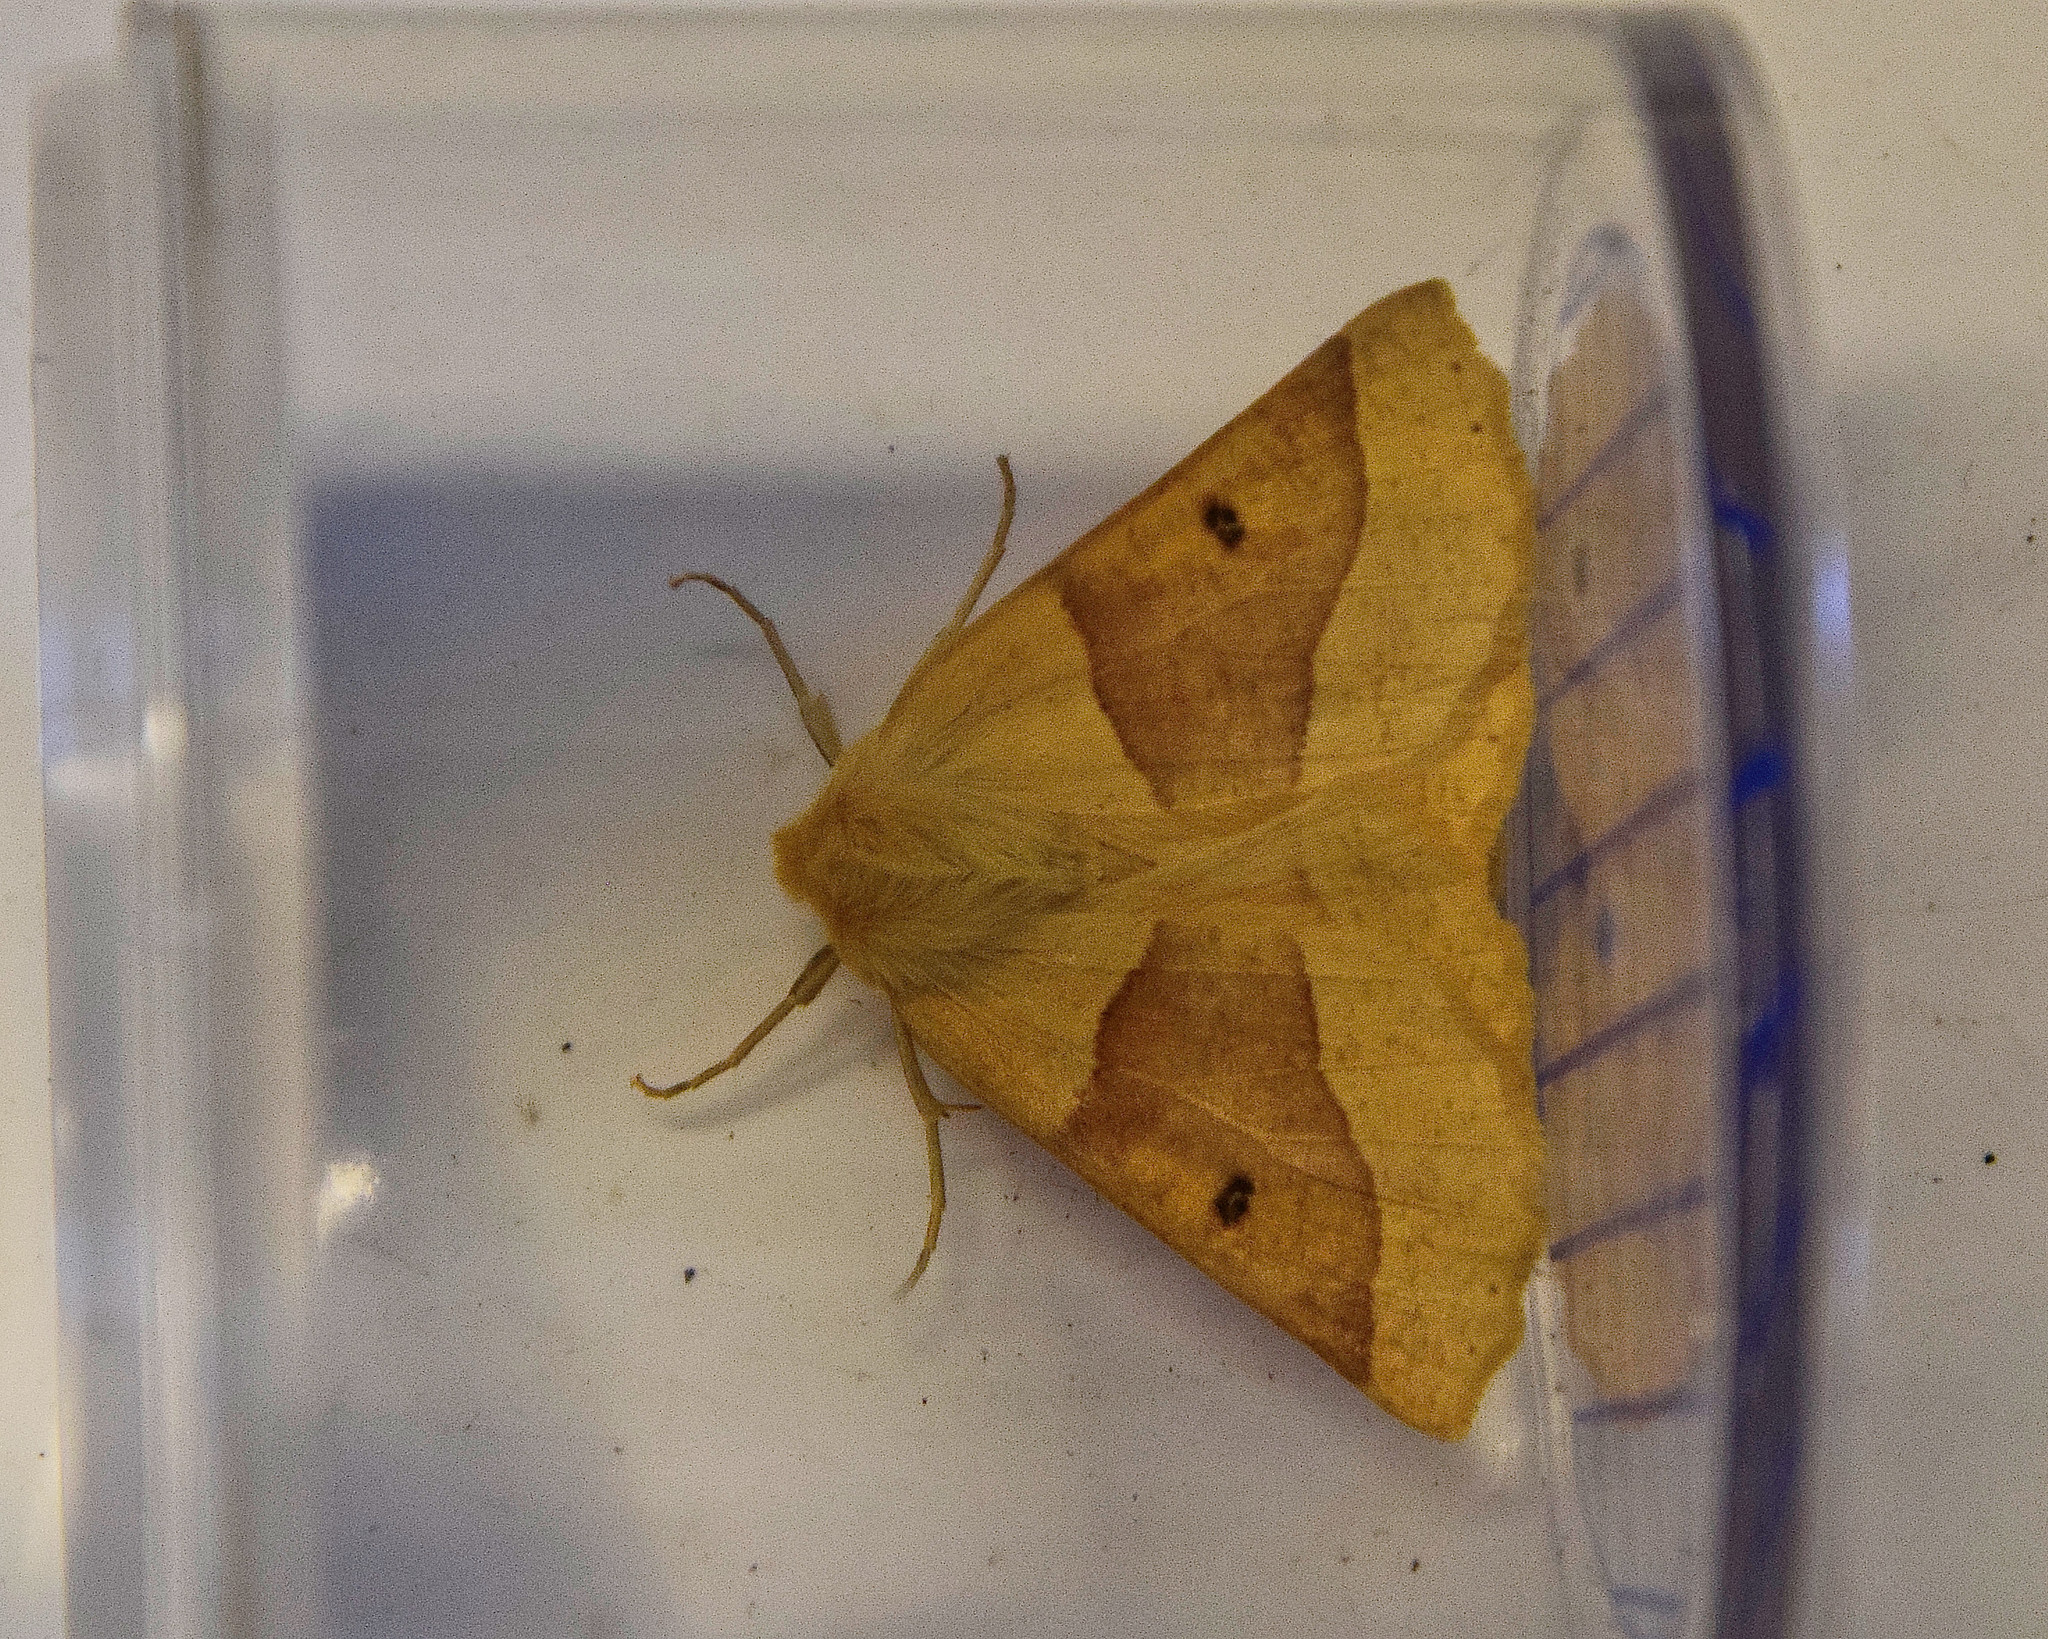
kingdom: Animalia
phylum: Arthropoda
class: Insecta
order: Lepidoptera
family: Geometridae
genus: Crocallis
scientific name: Crocallis elinguaria
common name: Scalloped oak
